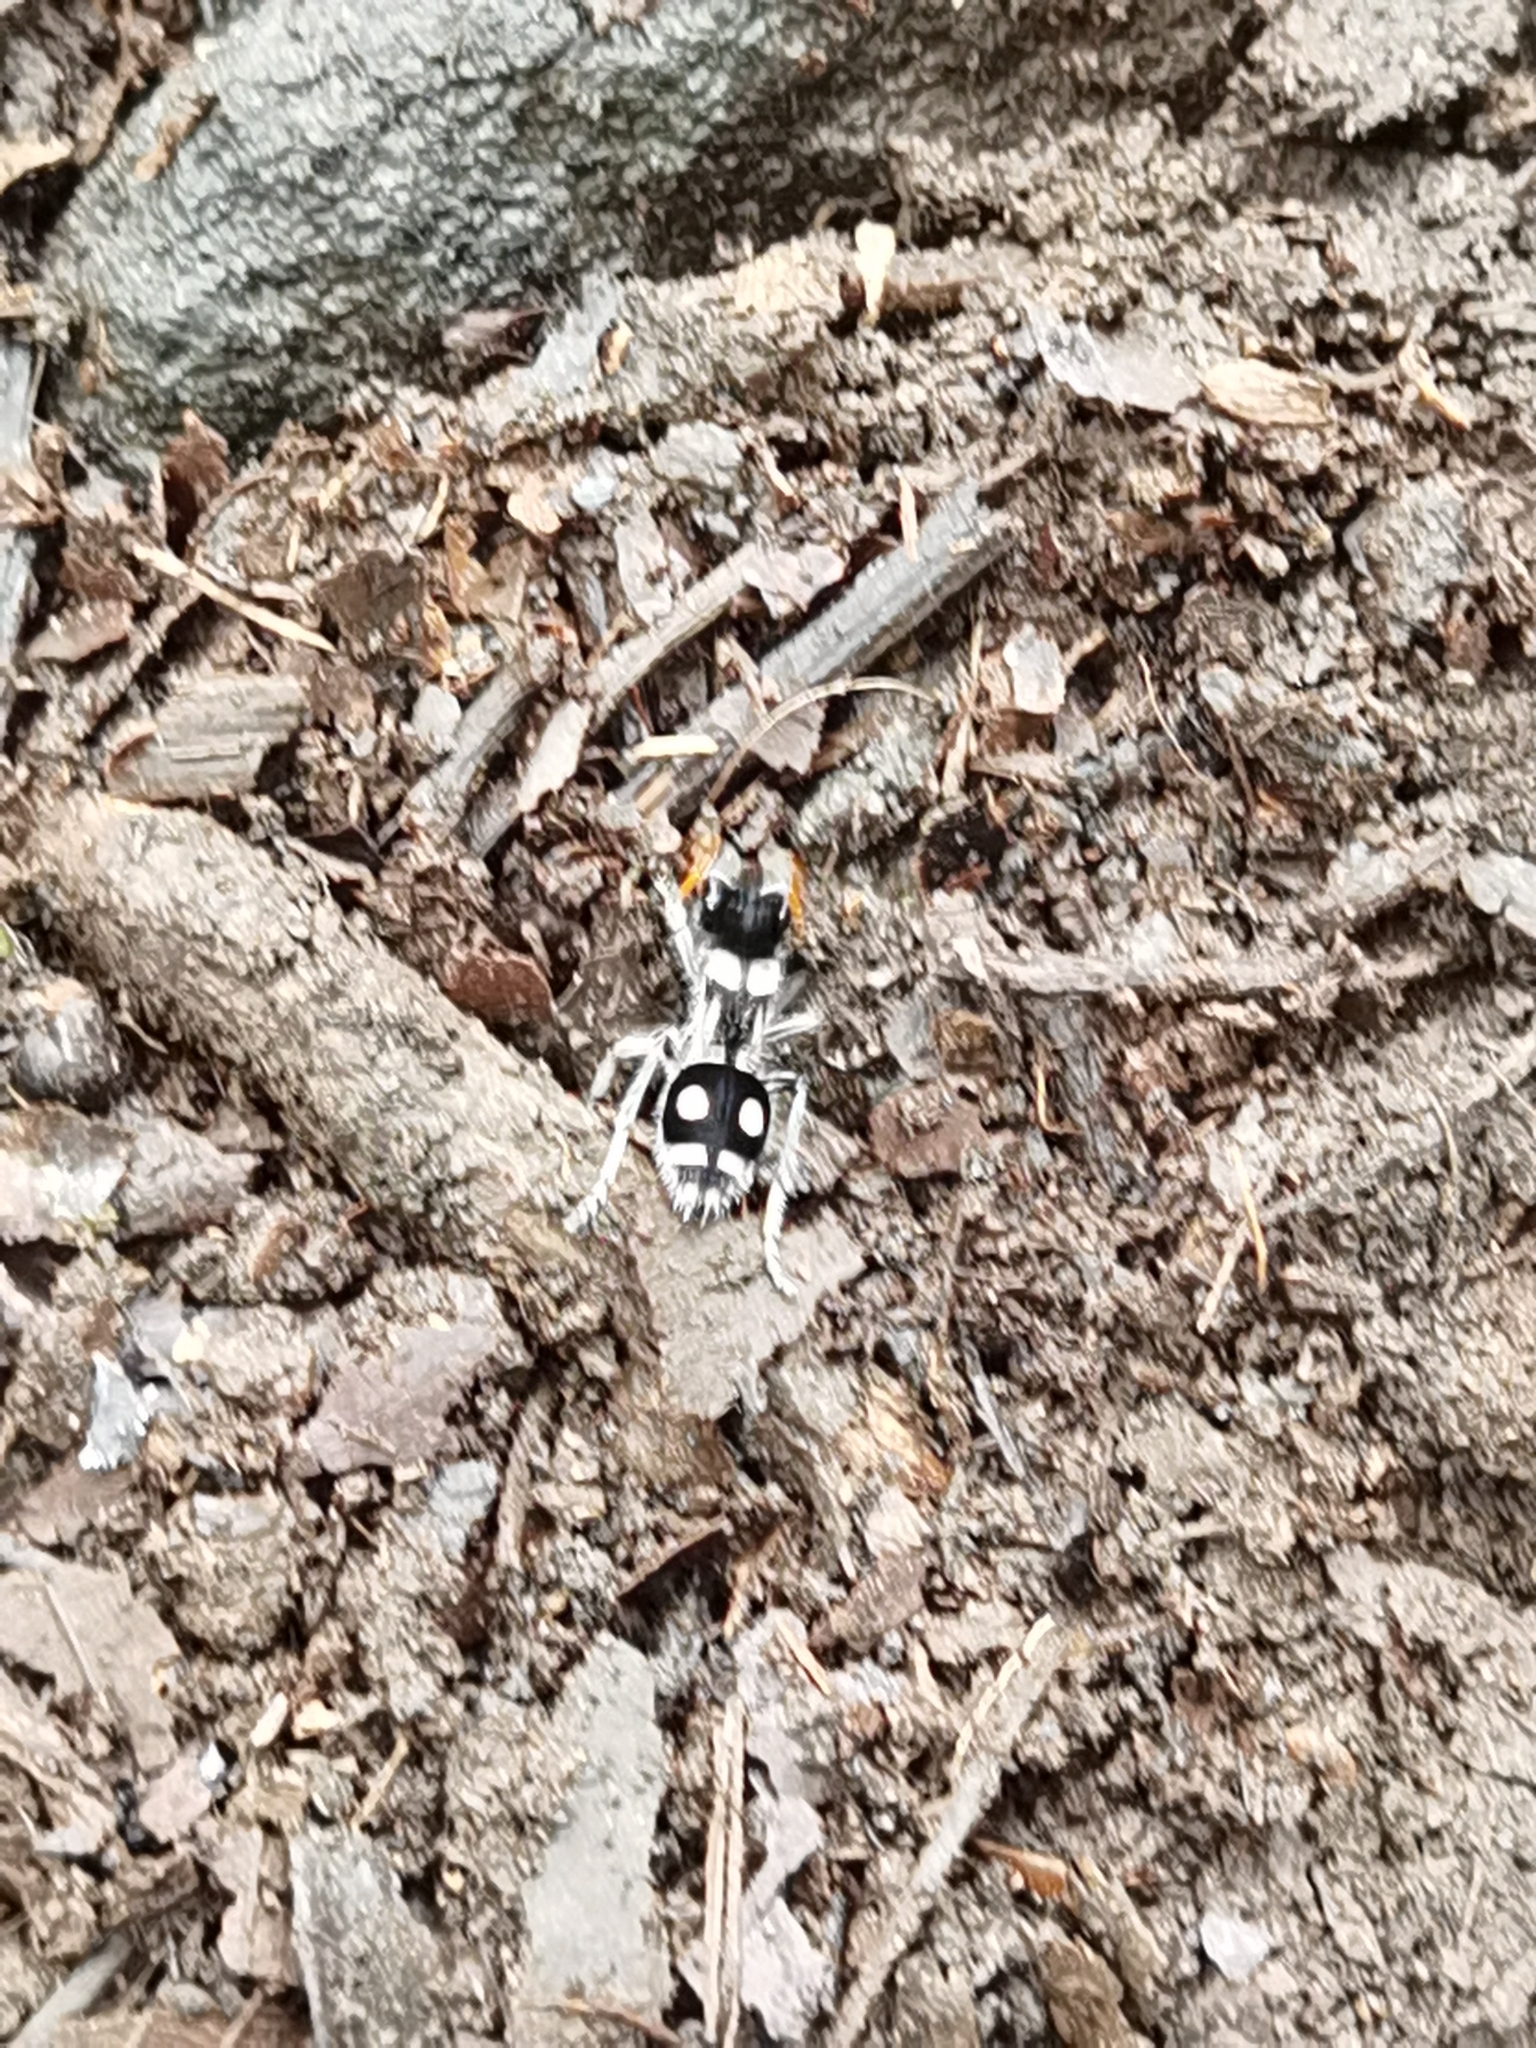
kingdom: Animalia
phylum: Arthropoda
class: Insecta
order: Hymenoptera
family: Mutillidae
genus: Hoplomutilla
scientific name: Hoplomutilla
